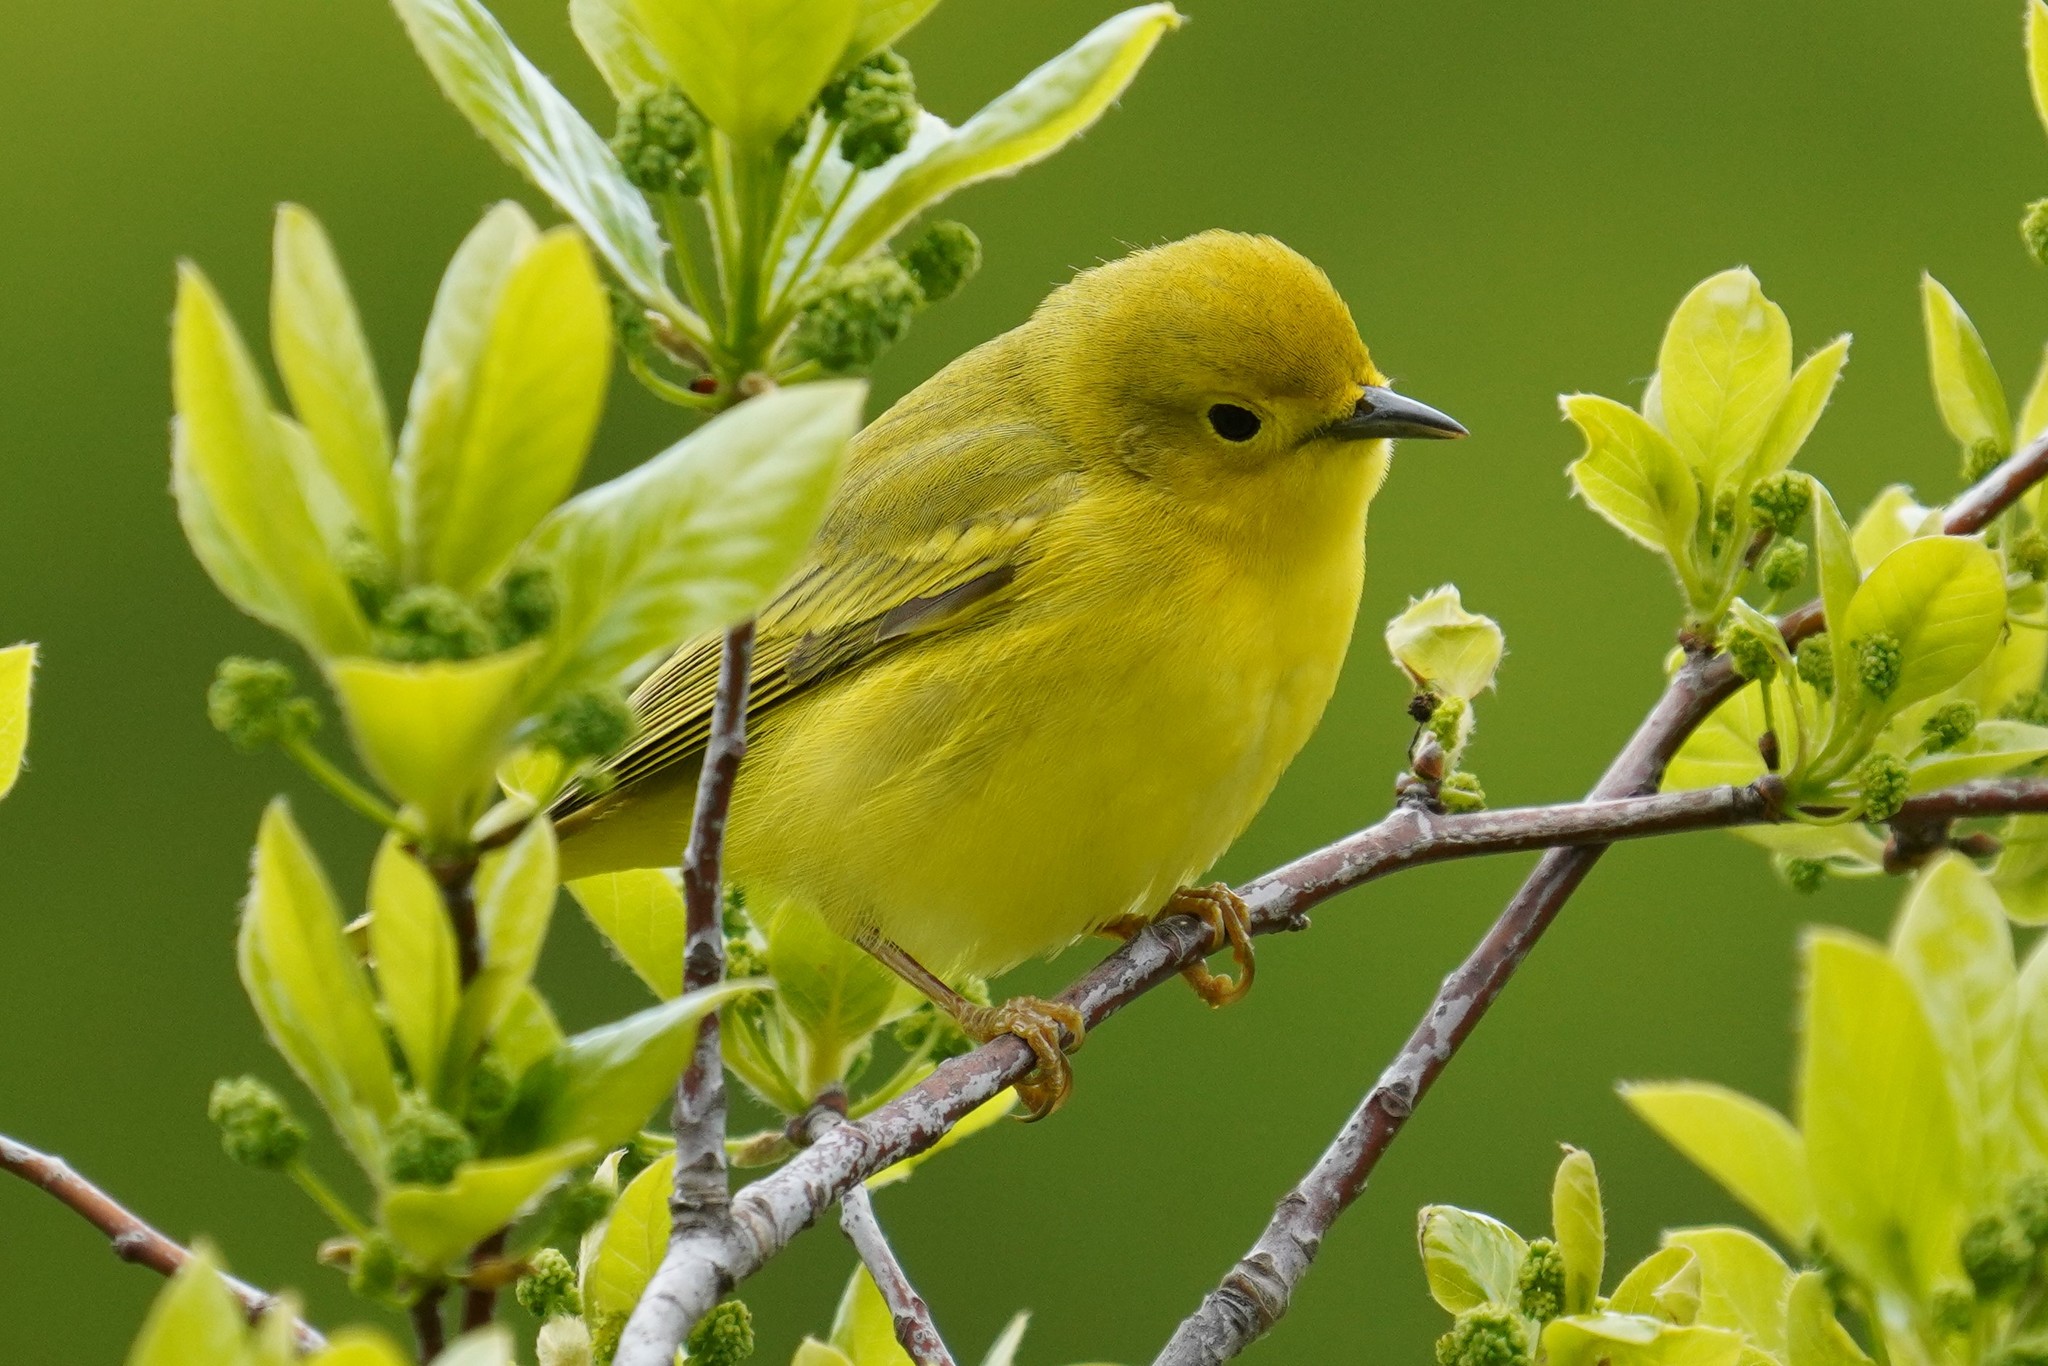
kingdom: Animalia
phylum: Chordata
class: Aves
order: Passeriformes
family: Parulidae
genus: Setophaga
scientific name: Setophaga petechia
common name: Yellow warbler
